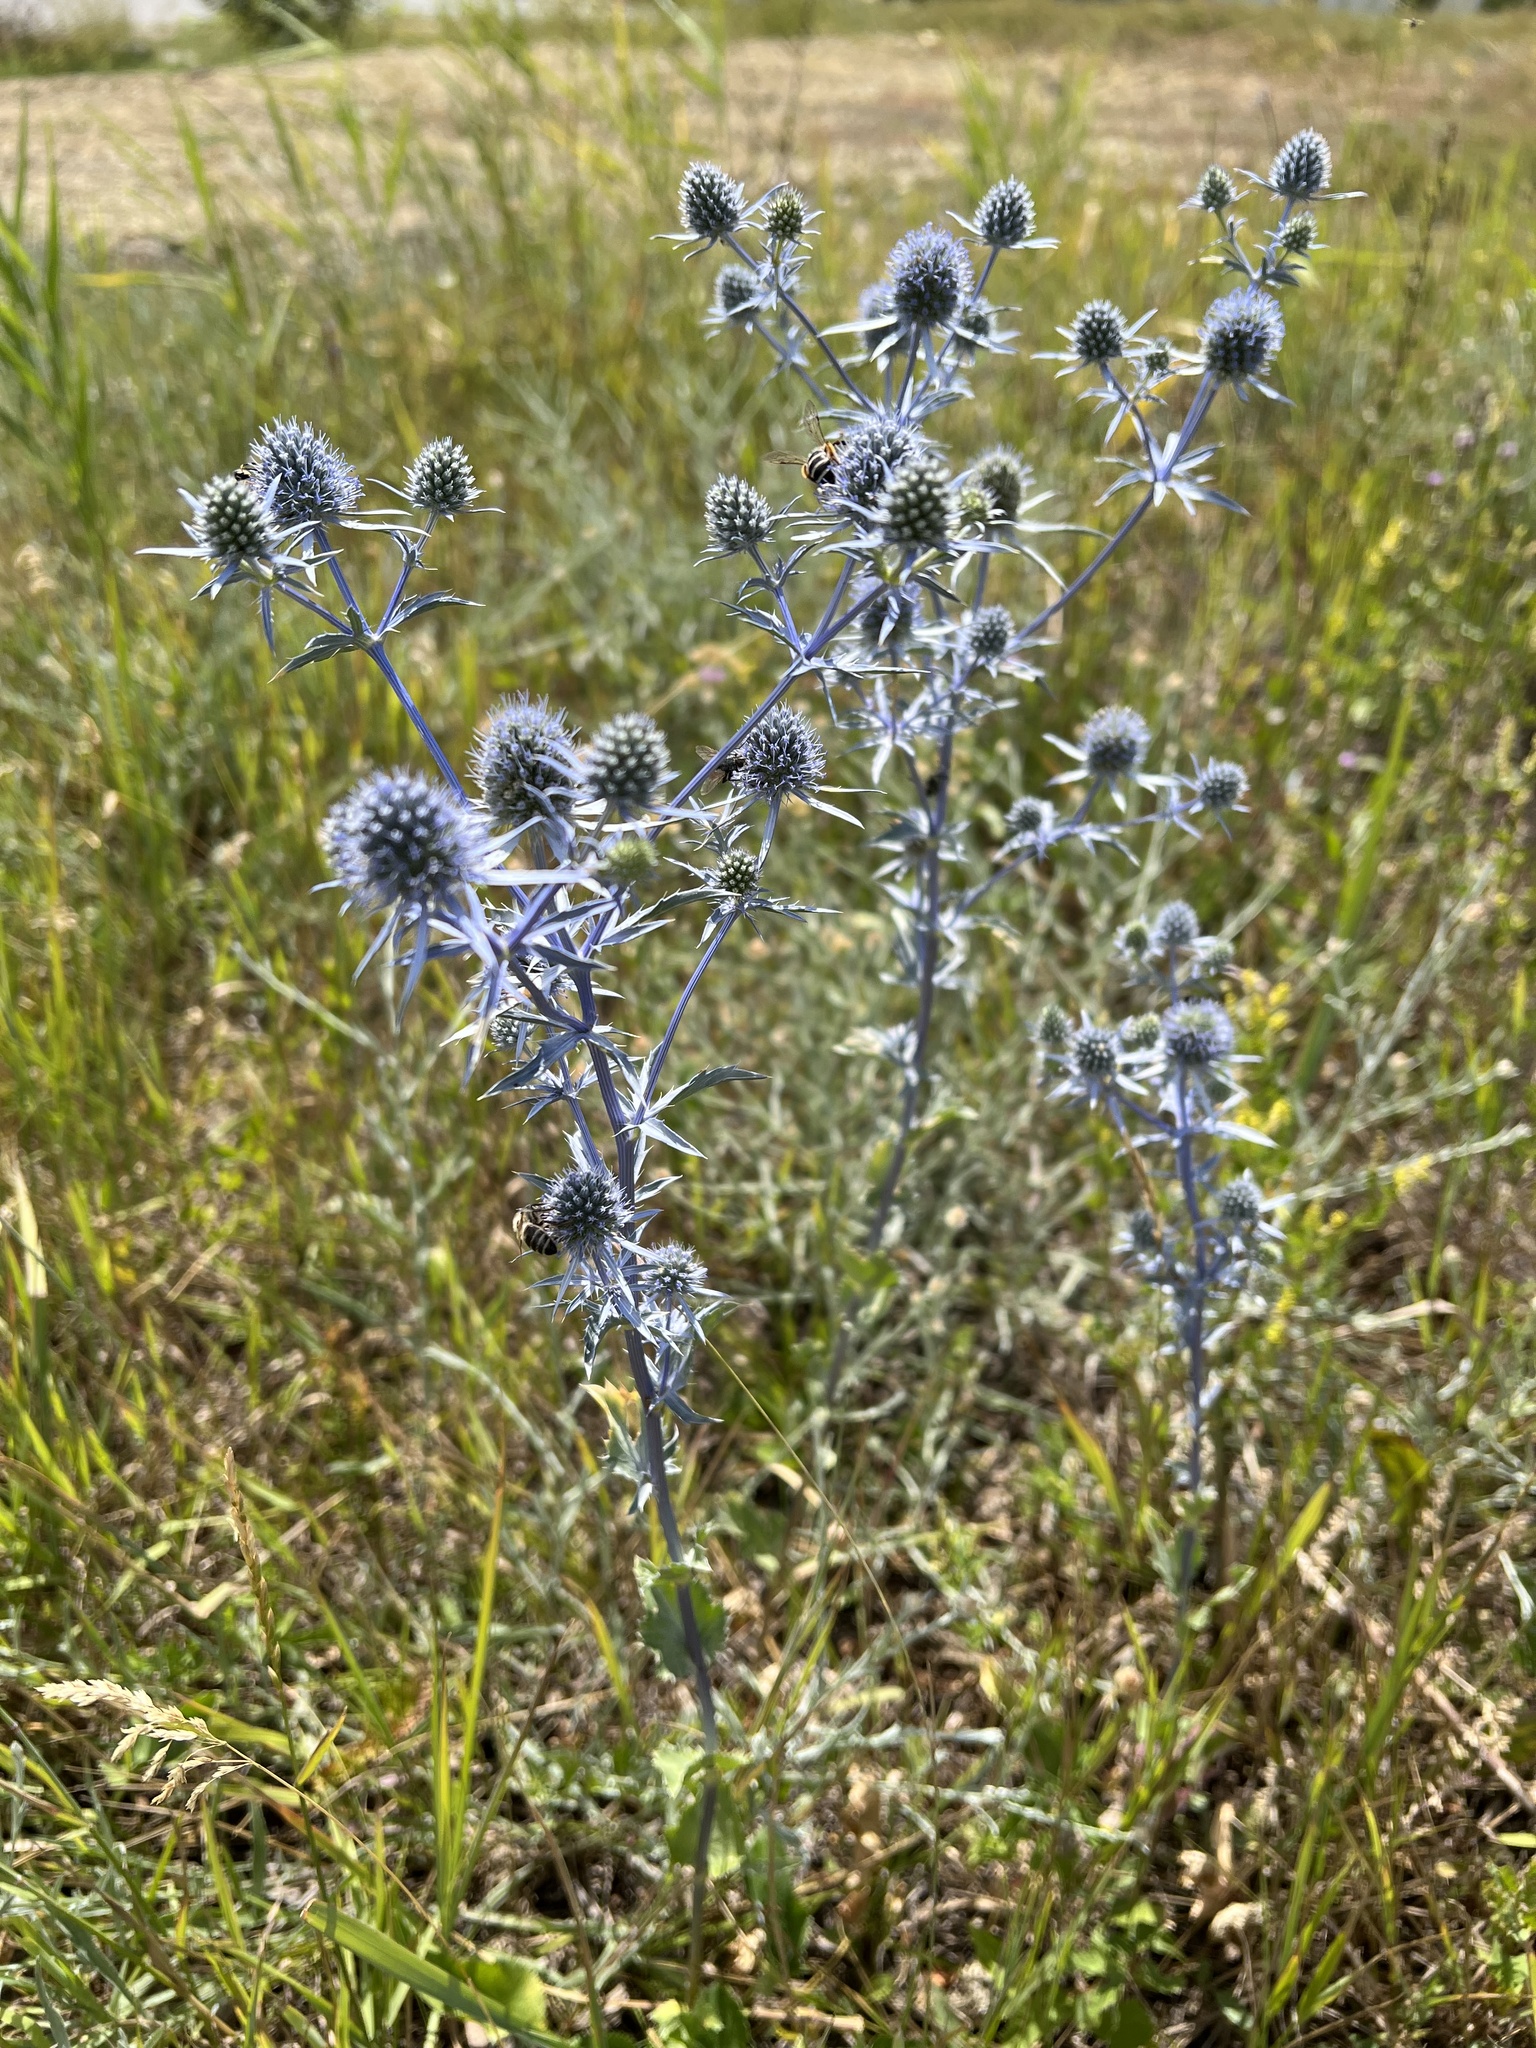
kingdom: Plantae
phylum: Tracheophyta
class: Magnoliopsida
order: Apiales
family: Apiaceae
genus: Eryngium
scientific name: Eryngium planum
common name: Blue eryngo
